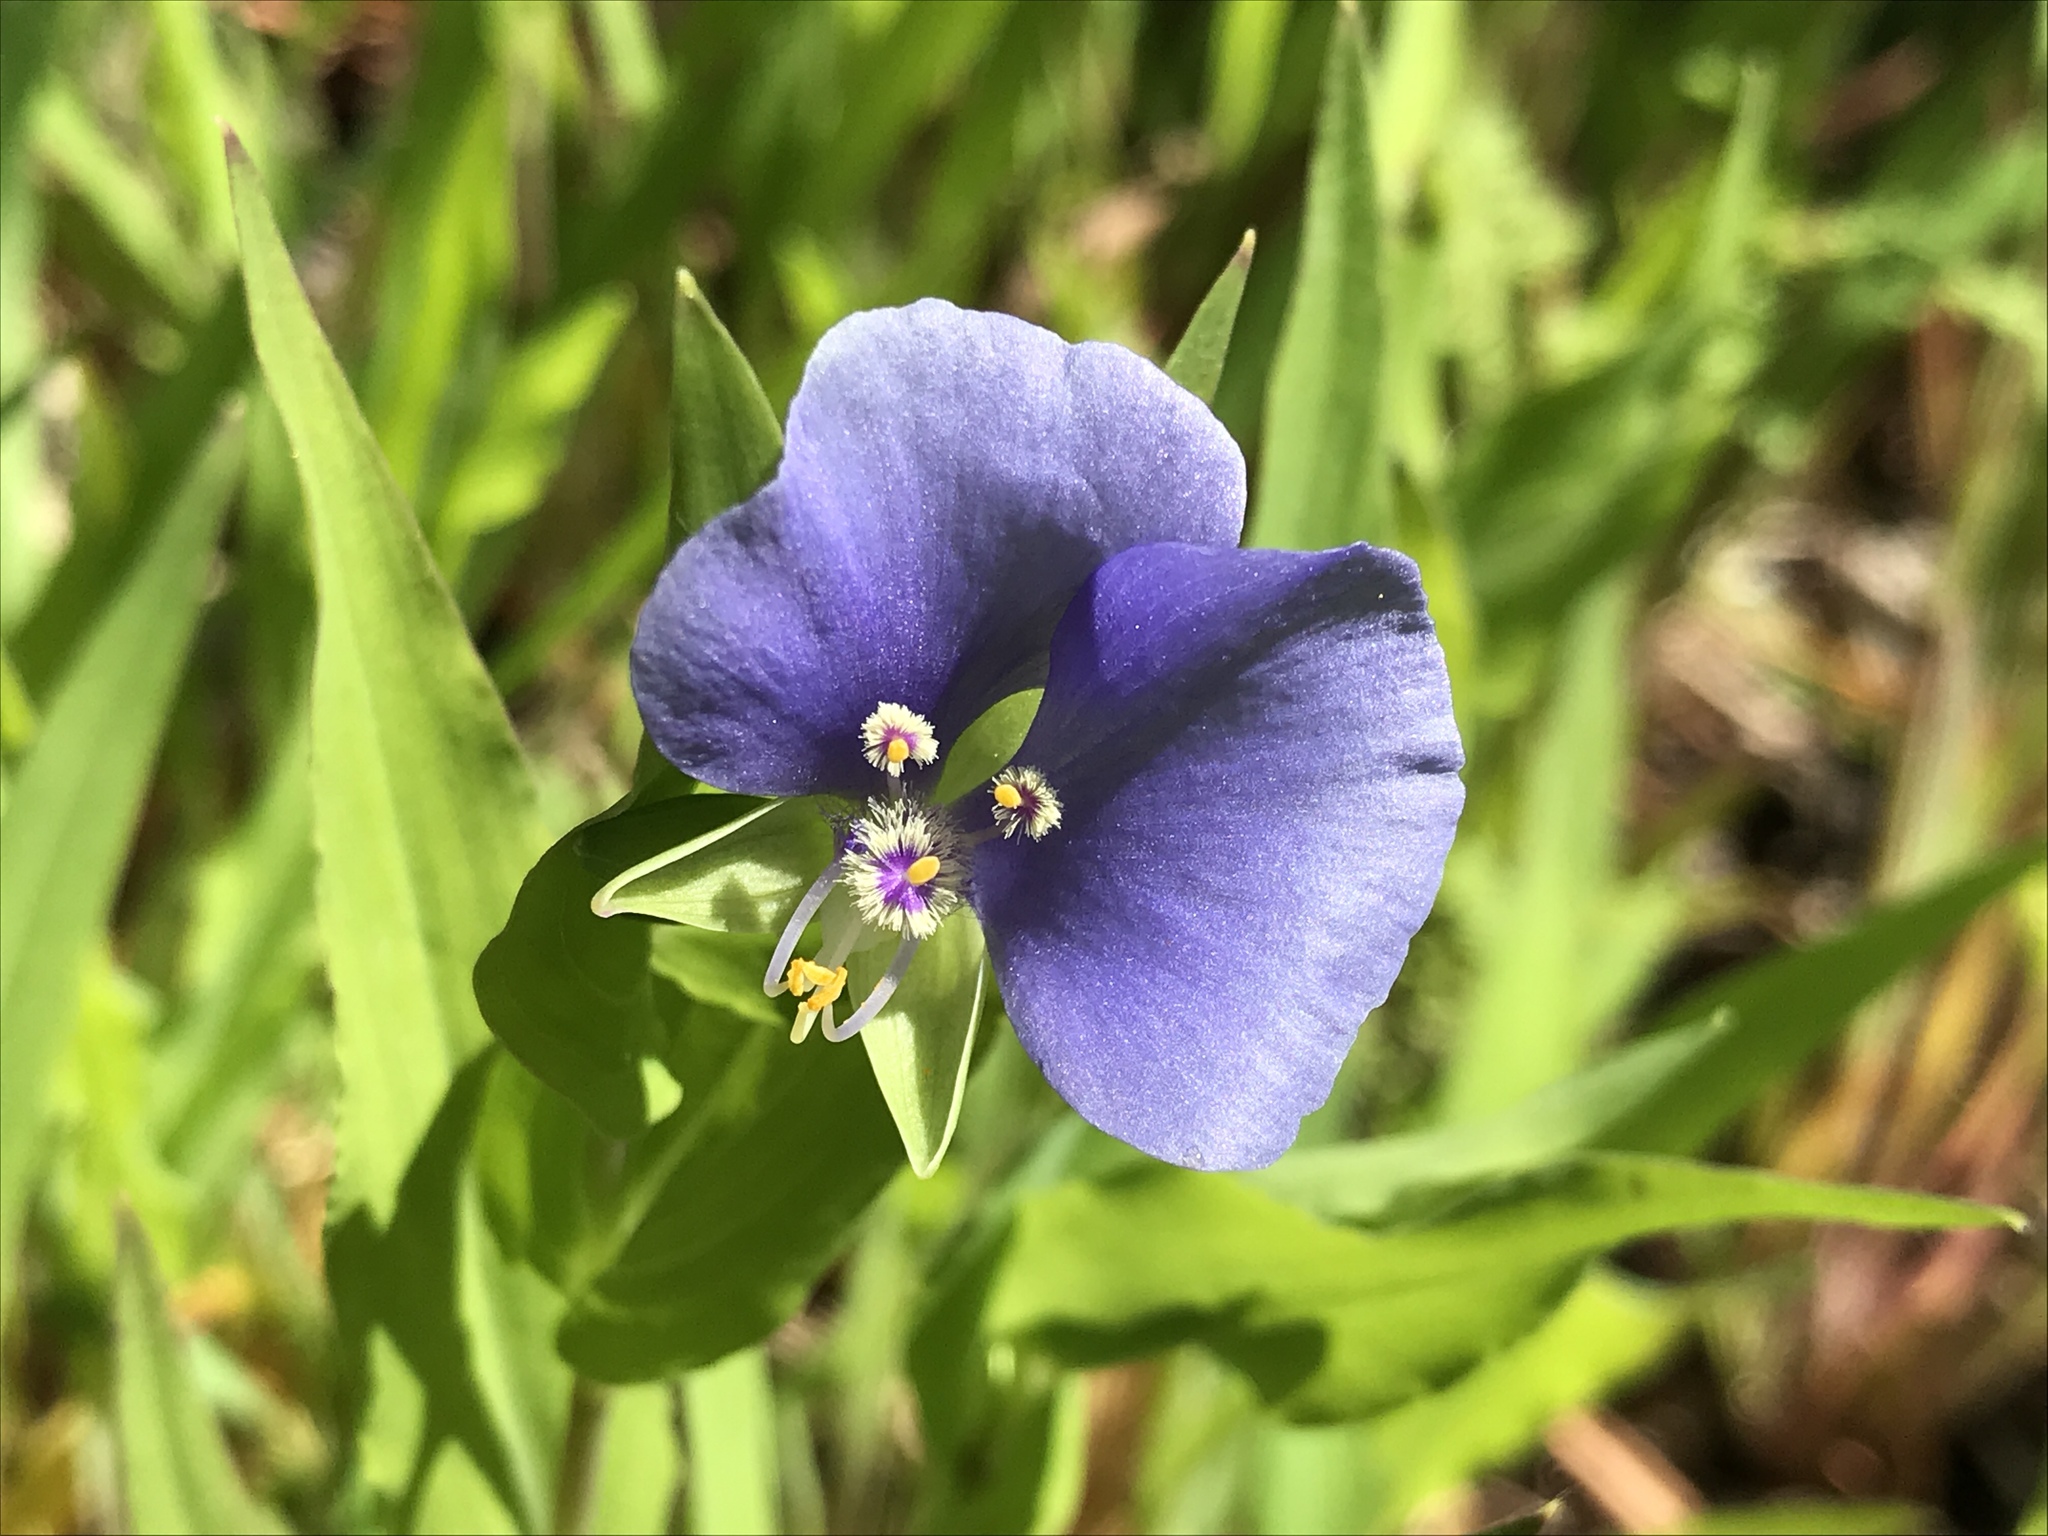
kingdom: Plantae
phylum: Tracheophyta
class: Liliopsida
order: Commelinales
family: Commelinaceae
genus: Tinantia
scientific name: Tinantia anomala
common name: False dayflower
